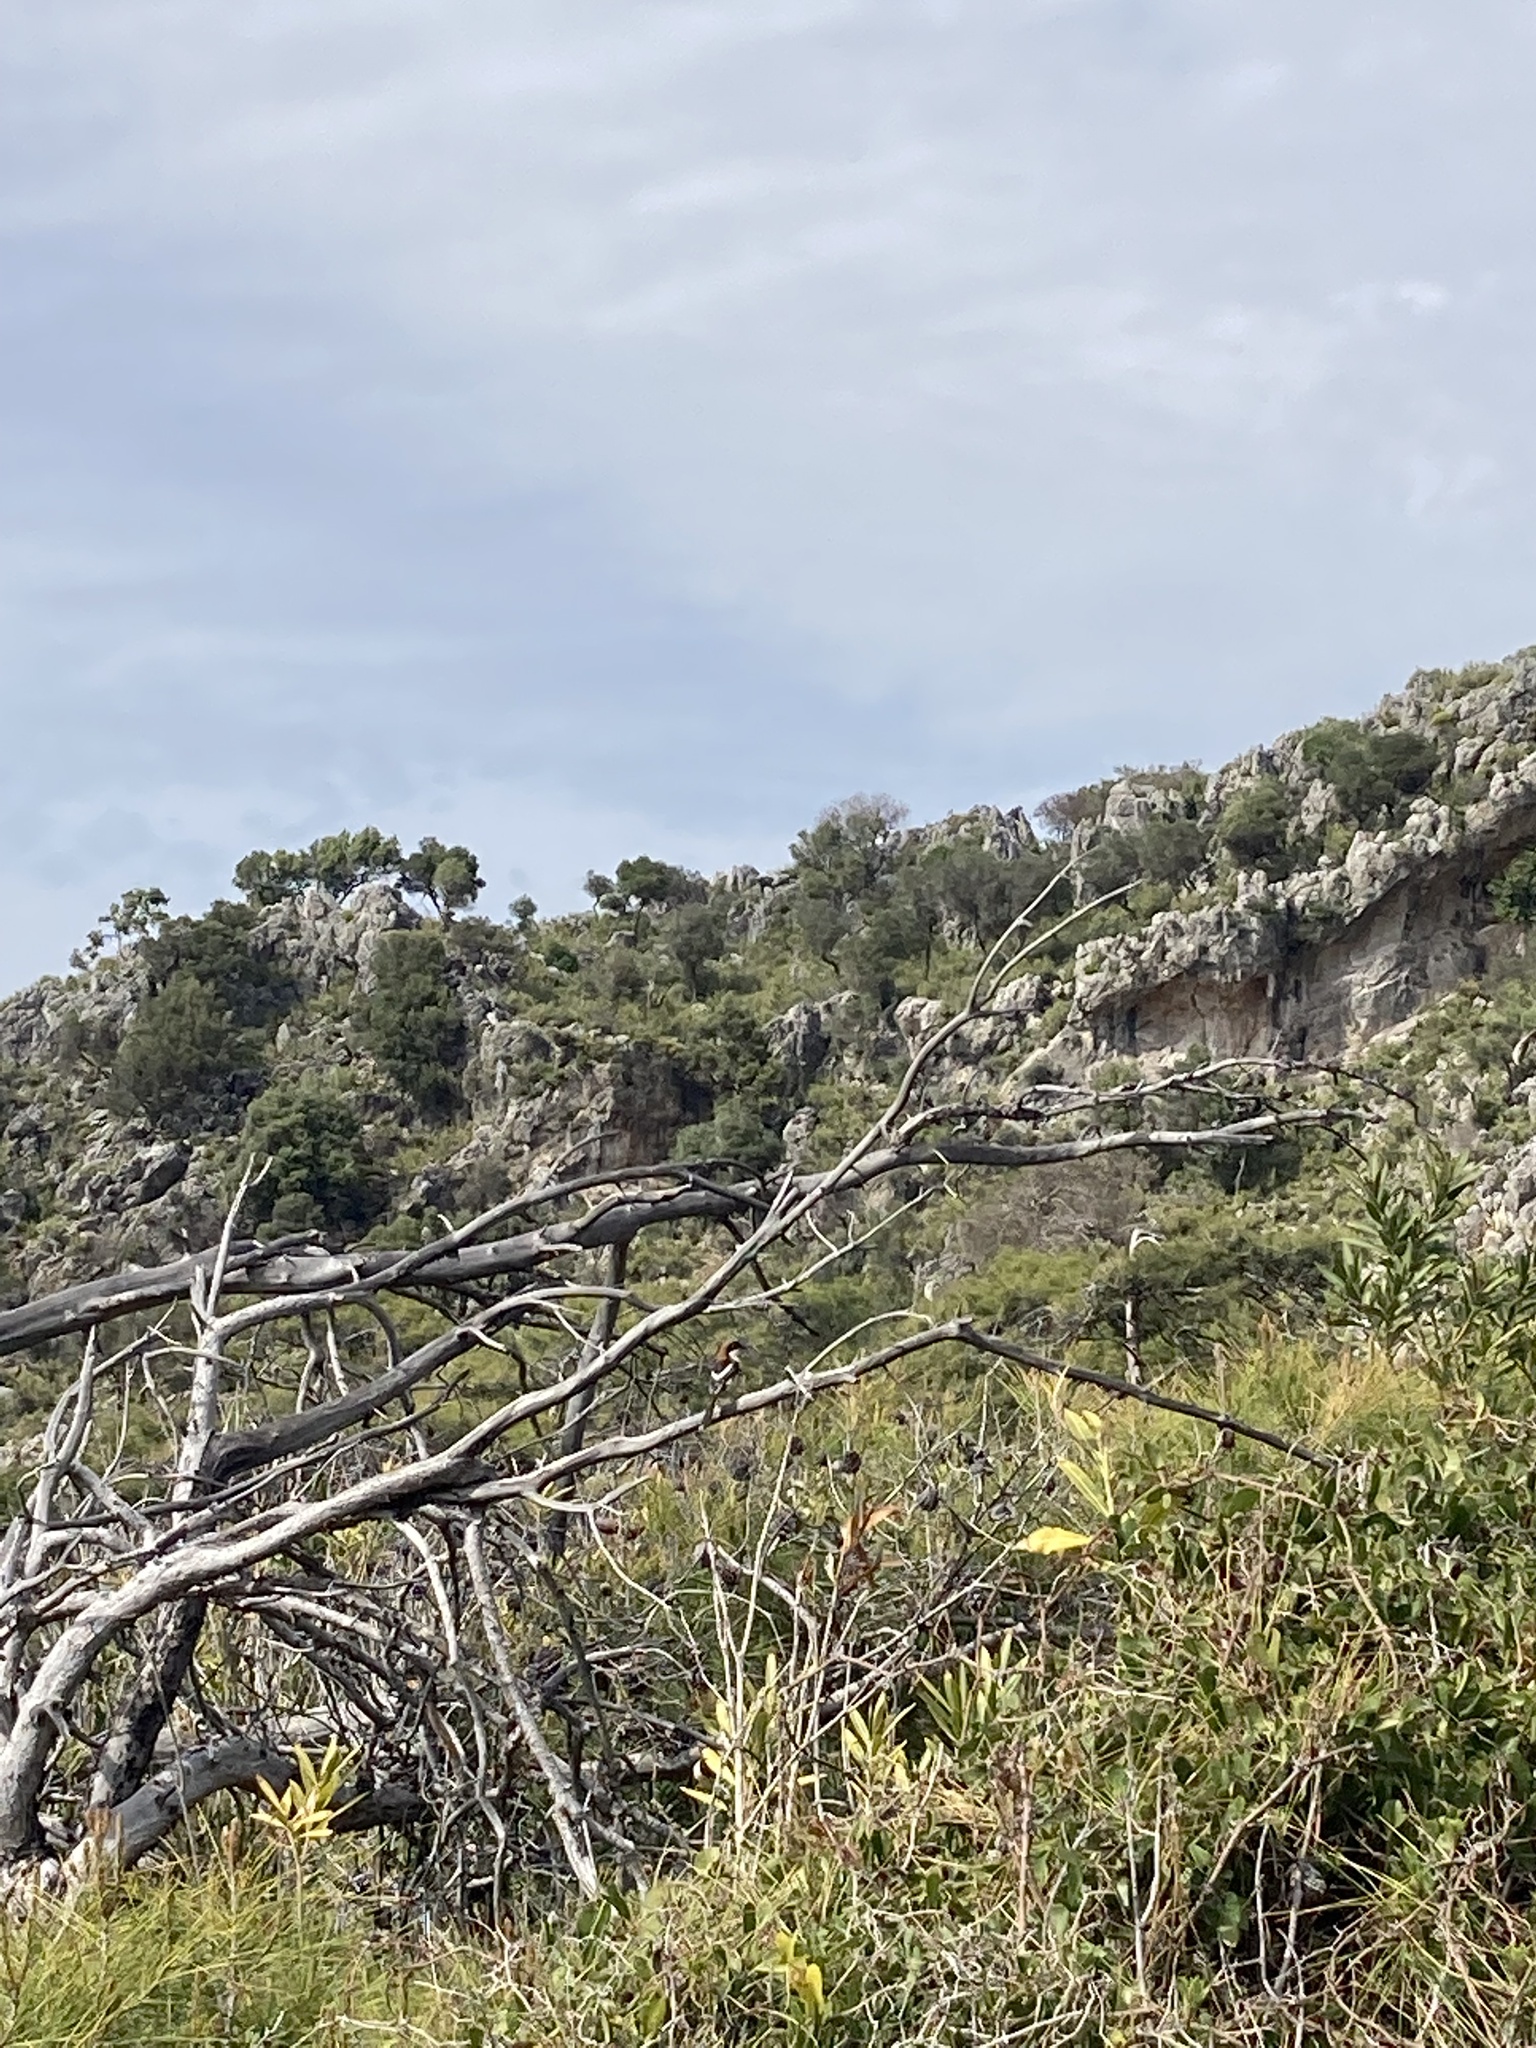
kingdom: Animalia
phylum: Chordata
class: Aves
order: Passeriformes
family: Laniidae
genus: Lanius
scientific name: Lanius senator
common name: Woodchat shrike
